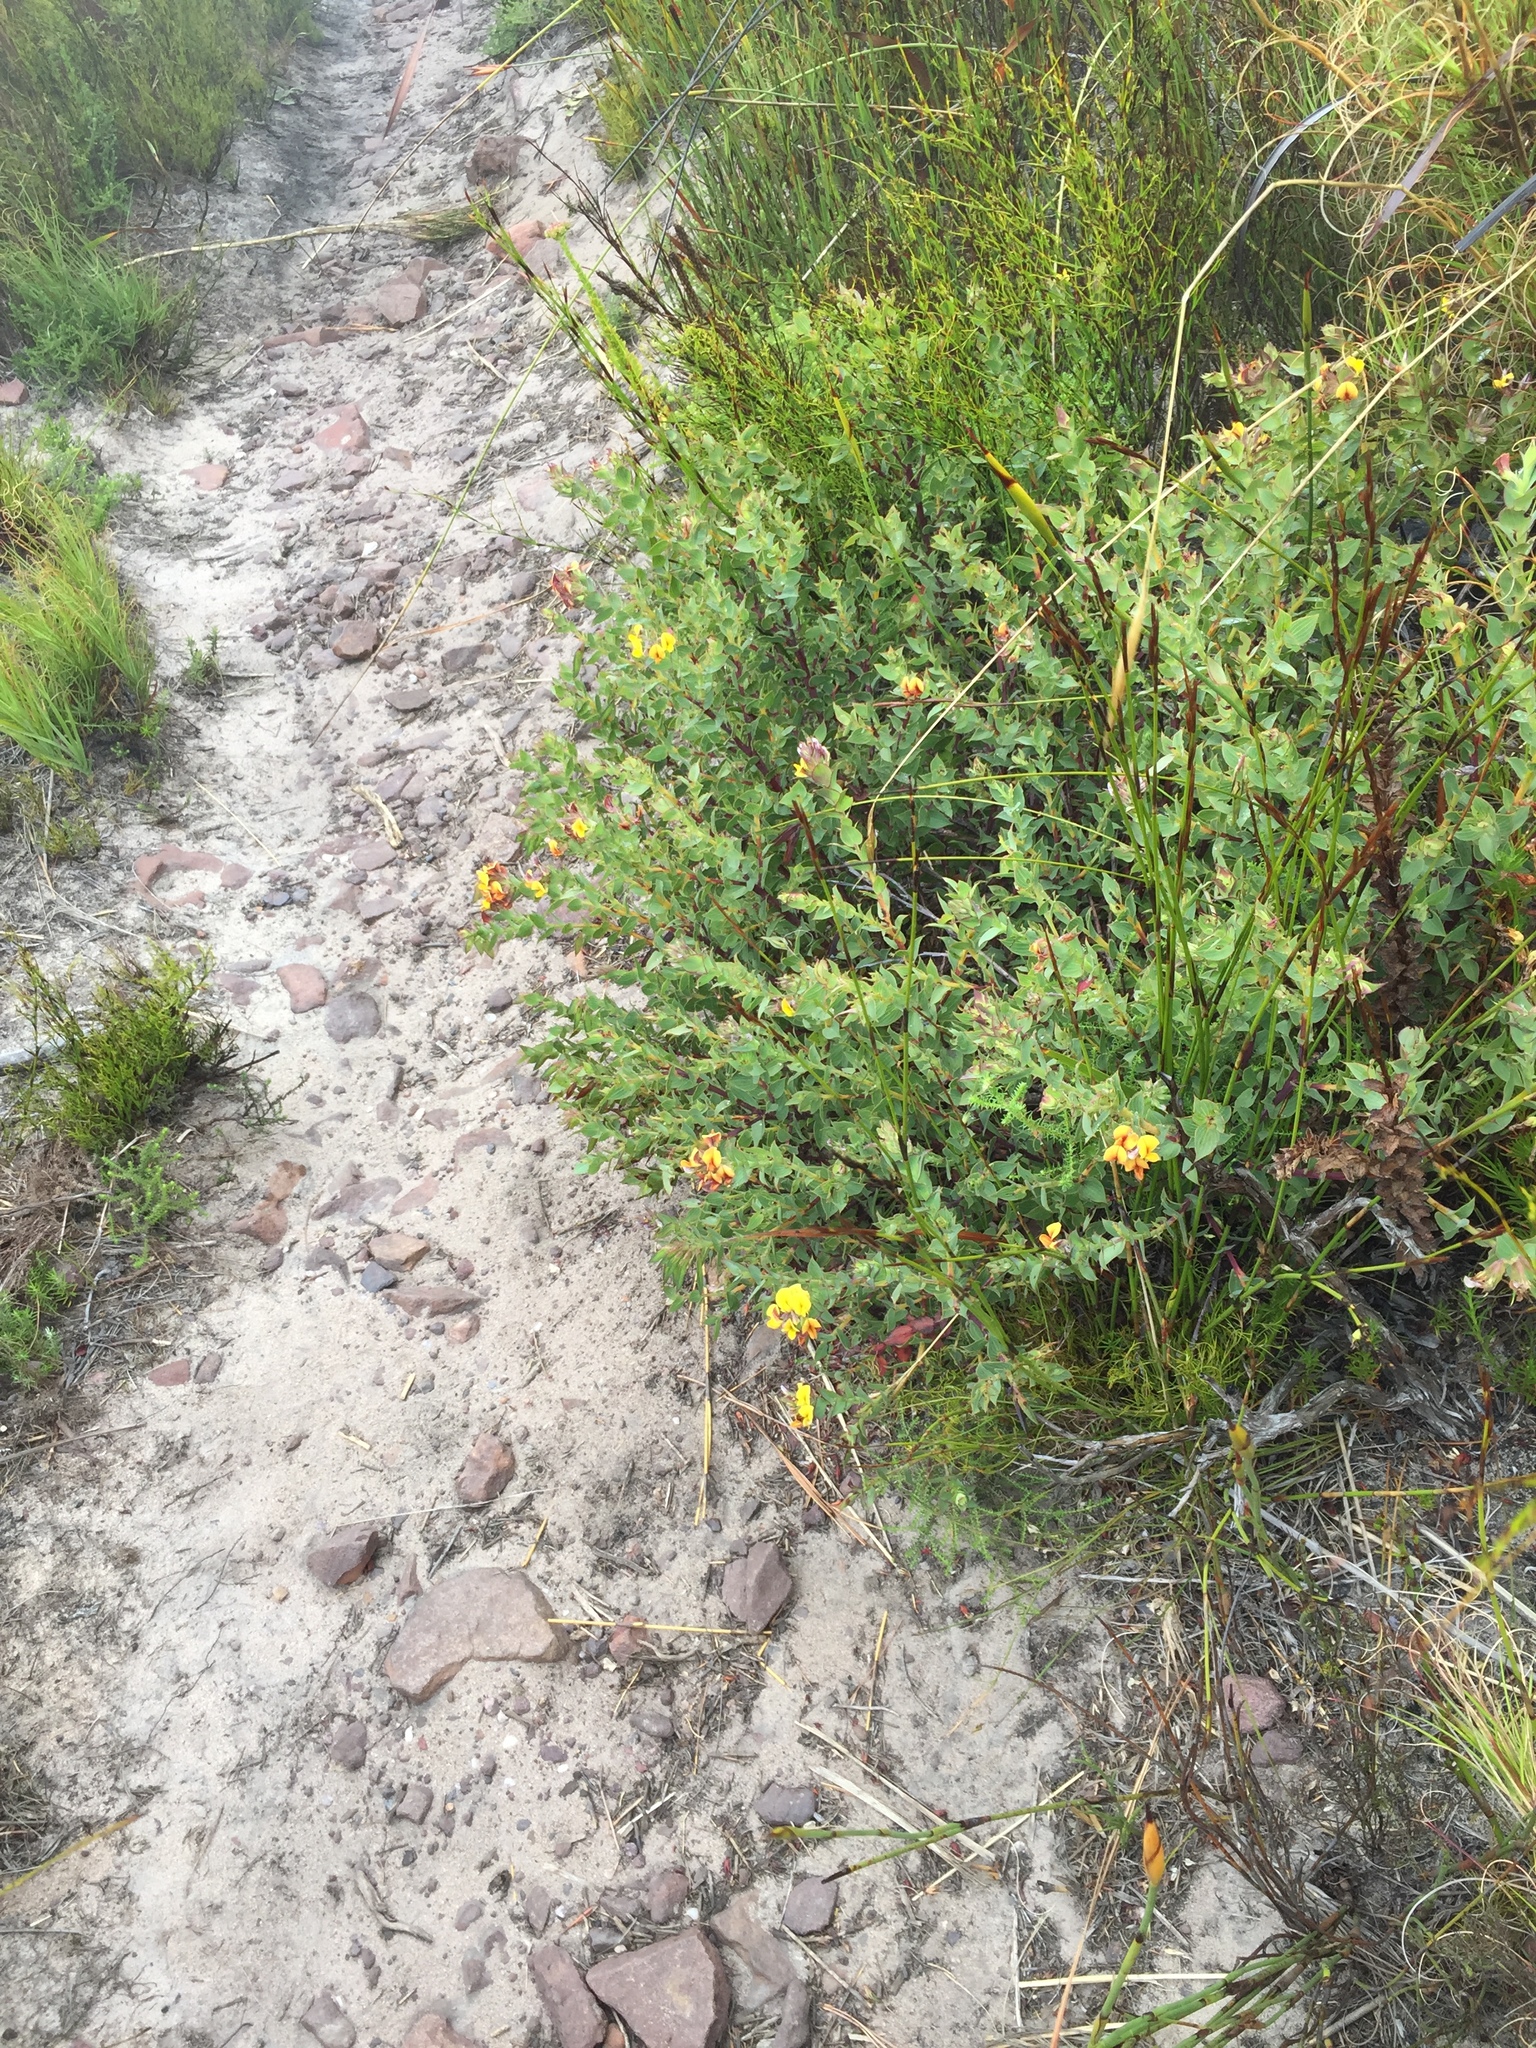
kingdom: Plantae
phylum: Tracheophyta
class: Magnoliopsida
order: Fabales
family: Fabaceae
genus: Aspalathus
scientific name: Aspalathus crenata
